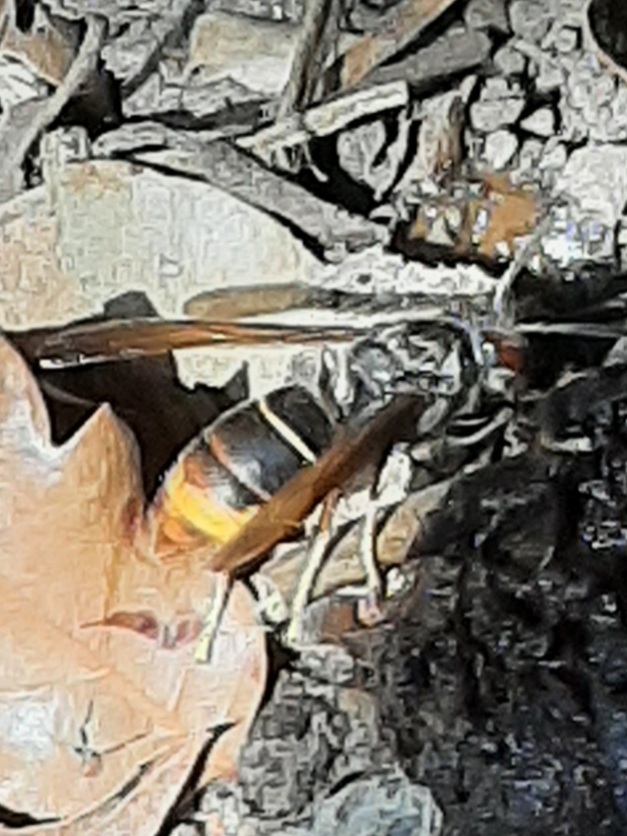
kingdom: Animalia
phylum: Arthropoda
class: Insecta
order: Hymenoptera
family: Vespidae
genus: Vespa
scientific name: Vespa velutina
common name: Asian hornet
